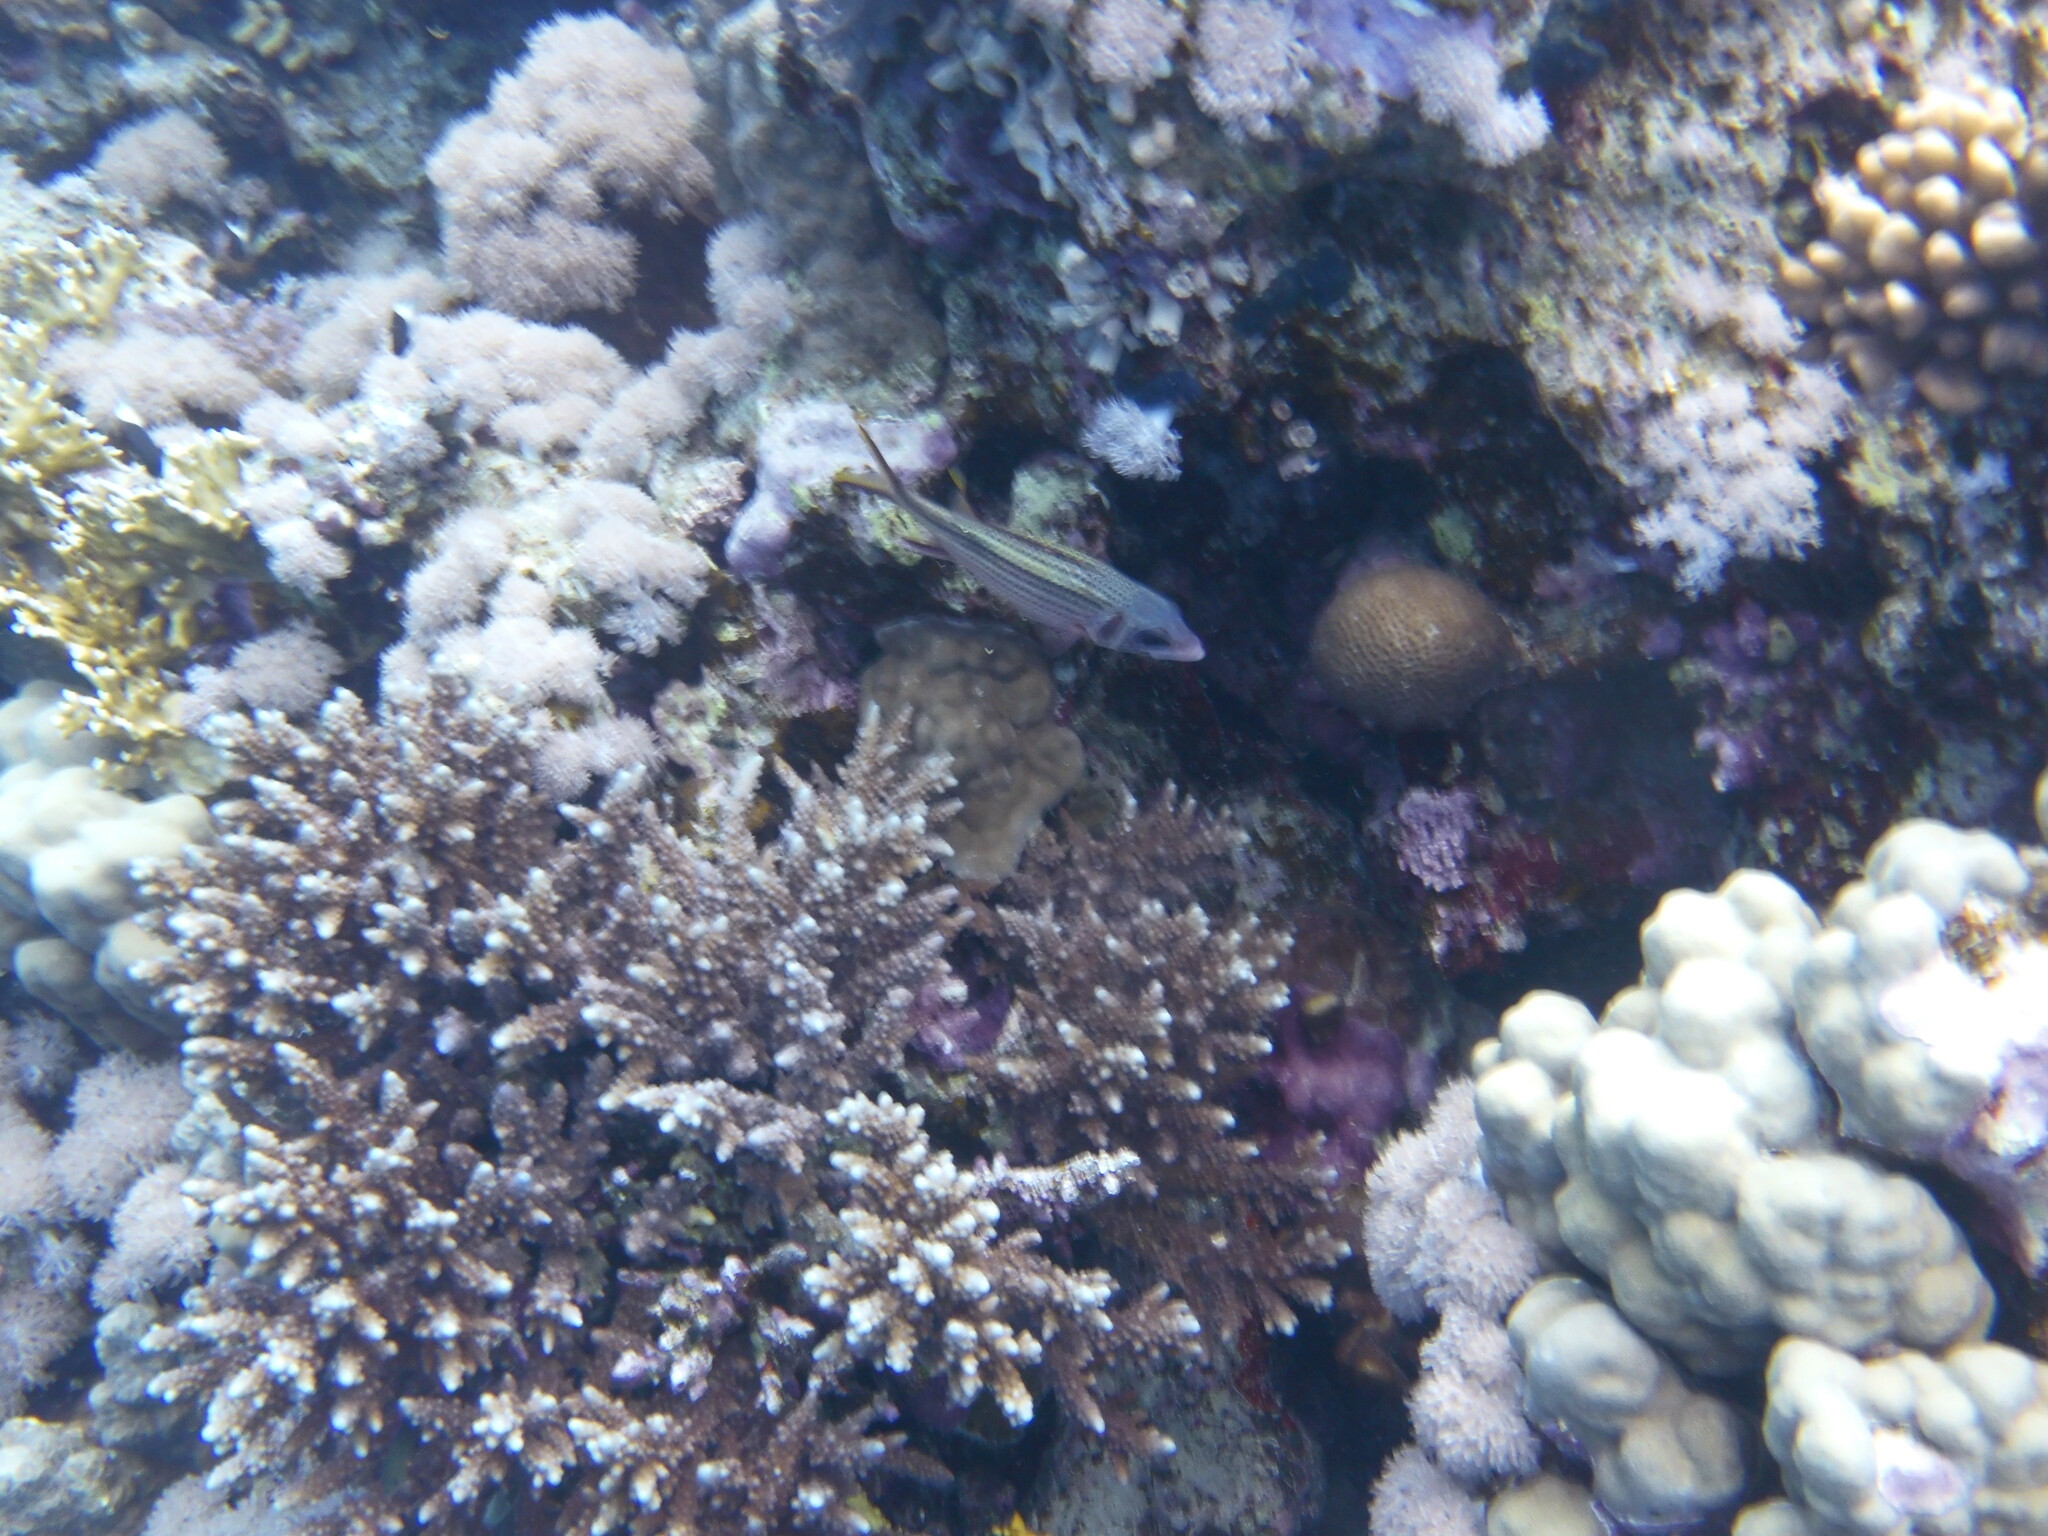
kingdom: Animalia
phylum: Chordata
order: Beryciformes
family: Holocentridae
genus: Neoniphon
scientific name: Neoniphon sammara
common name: Sammara squirrelfish
